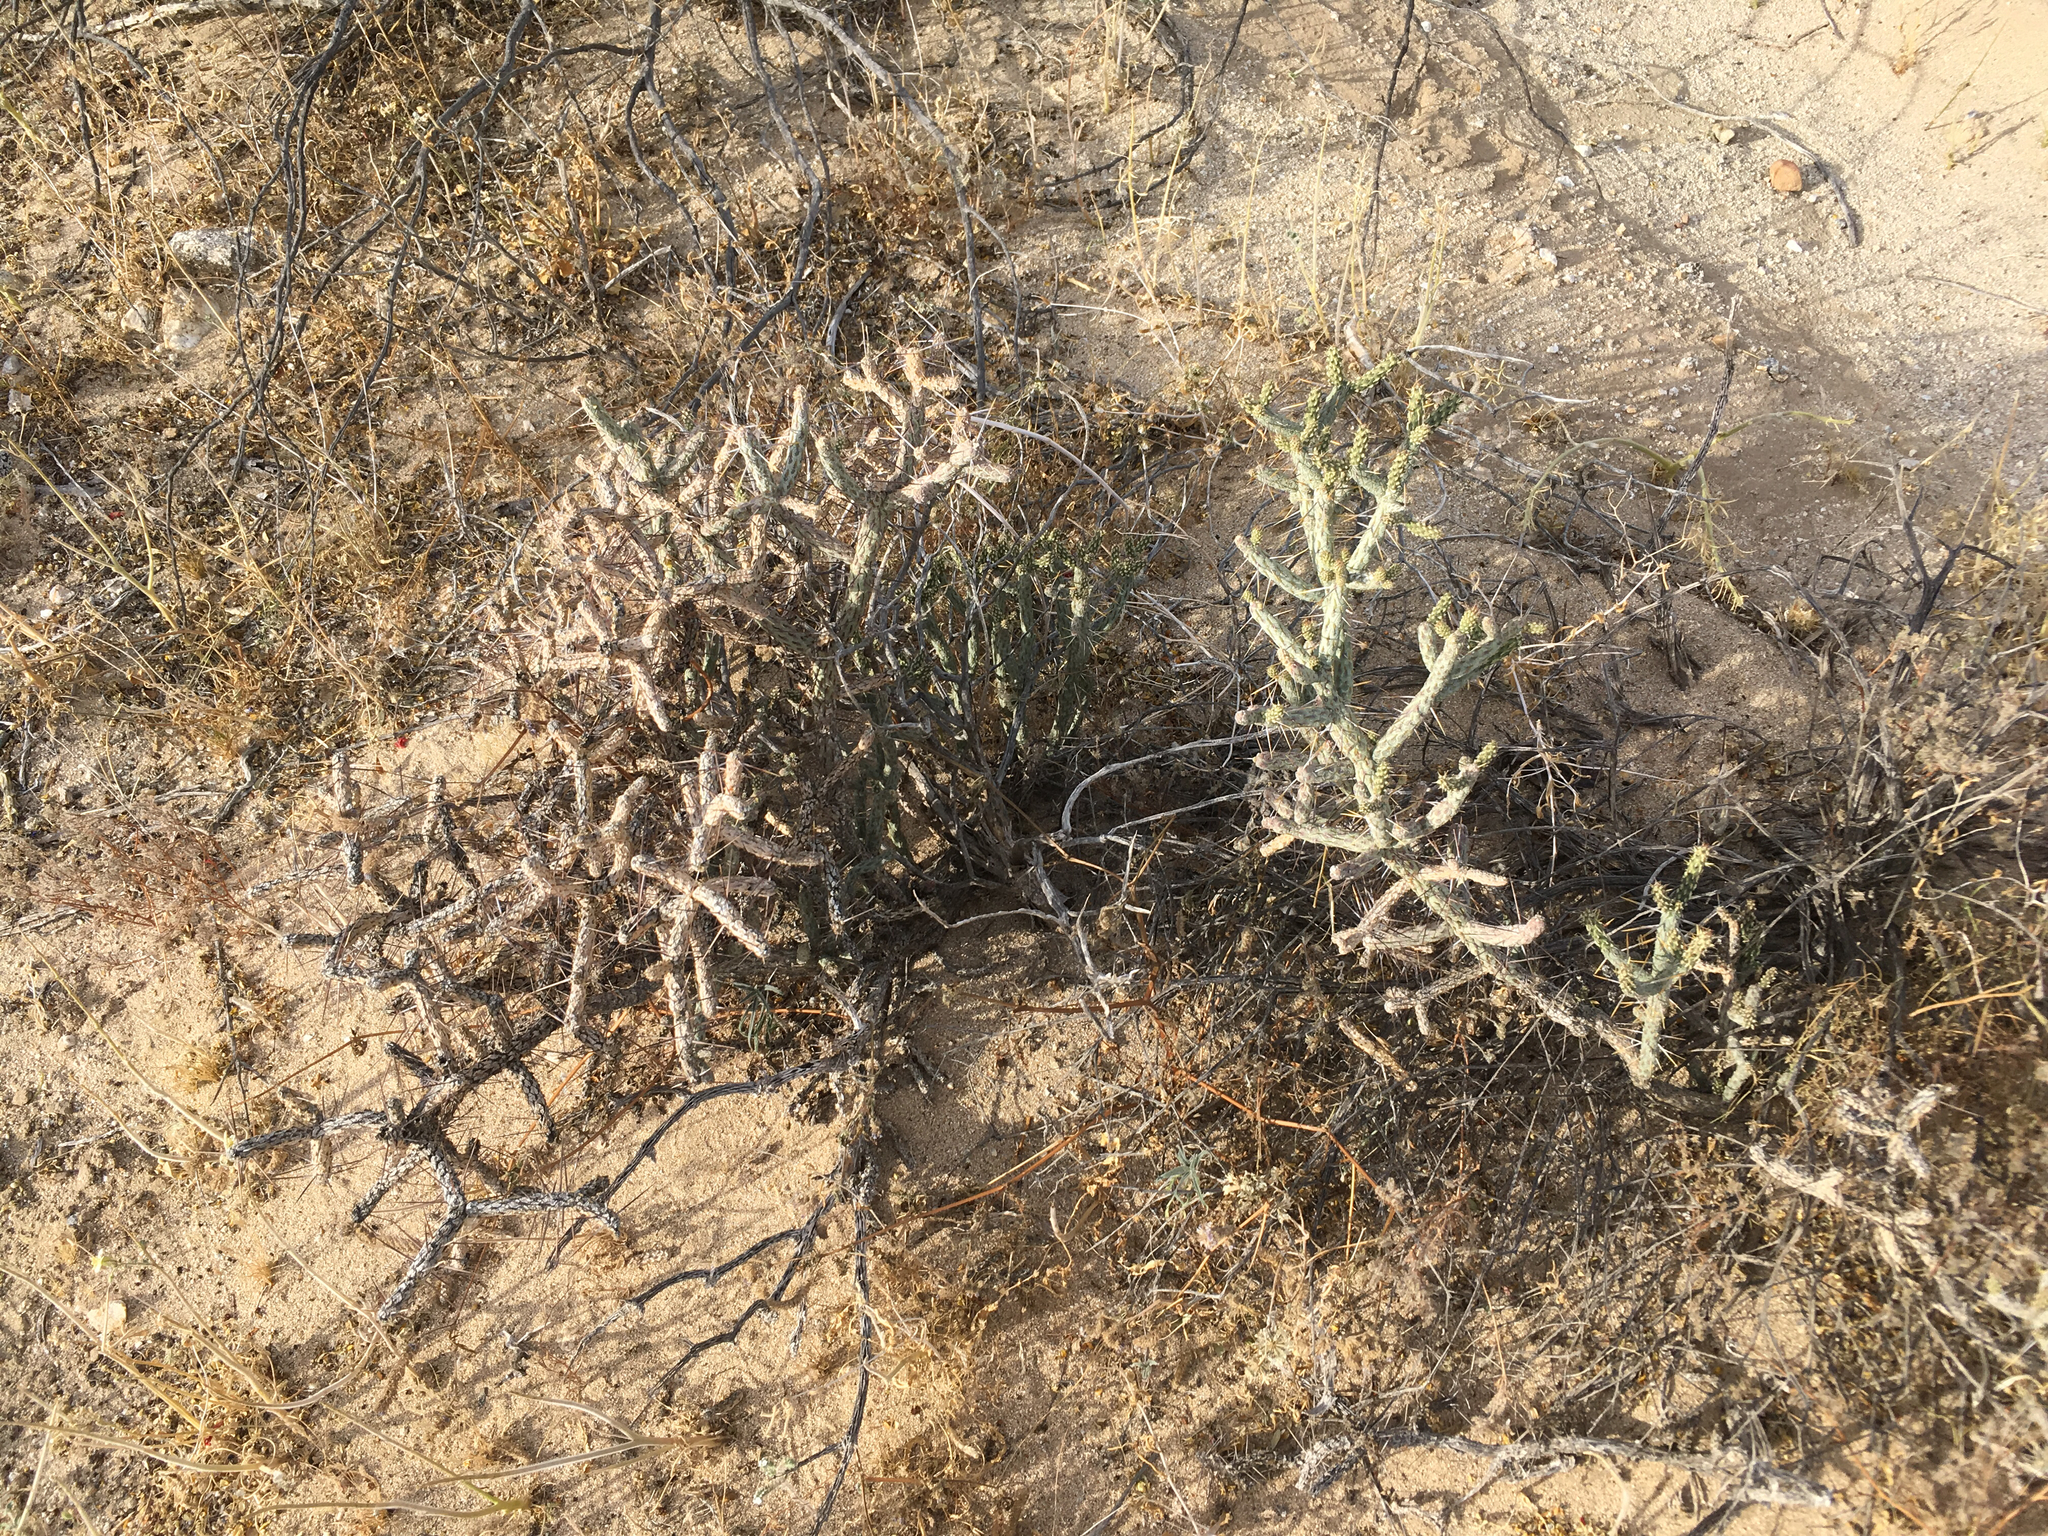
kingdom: Plantae
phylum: Tracheophyta
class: Magnoliopsida
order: Caryophyllales
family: Cactaceae
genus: Cylindropuntia
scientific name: Cylindropuntia ramosissima
